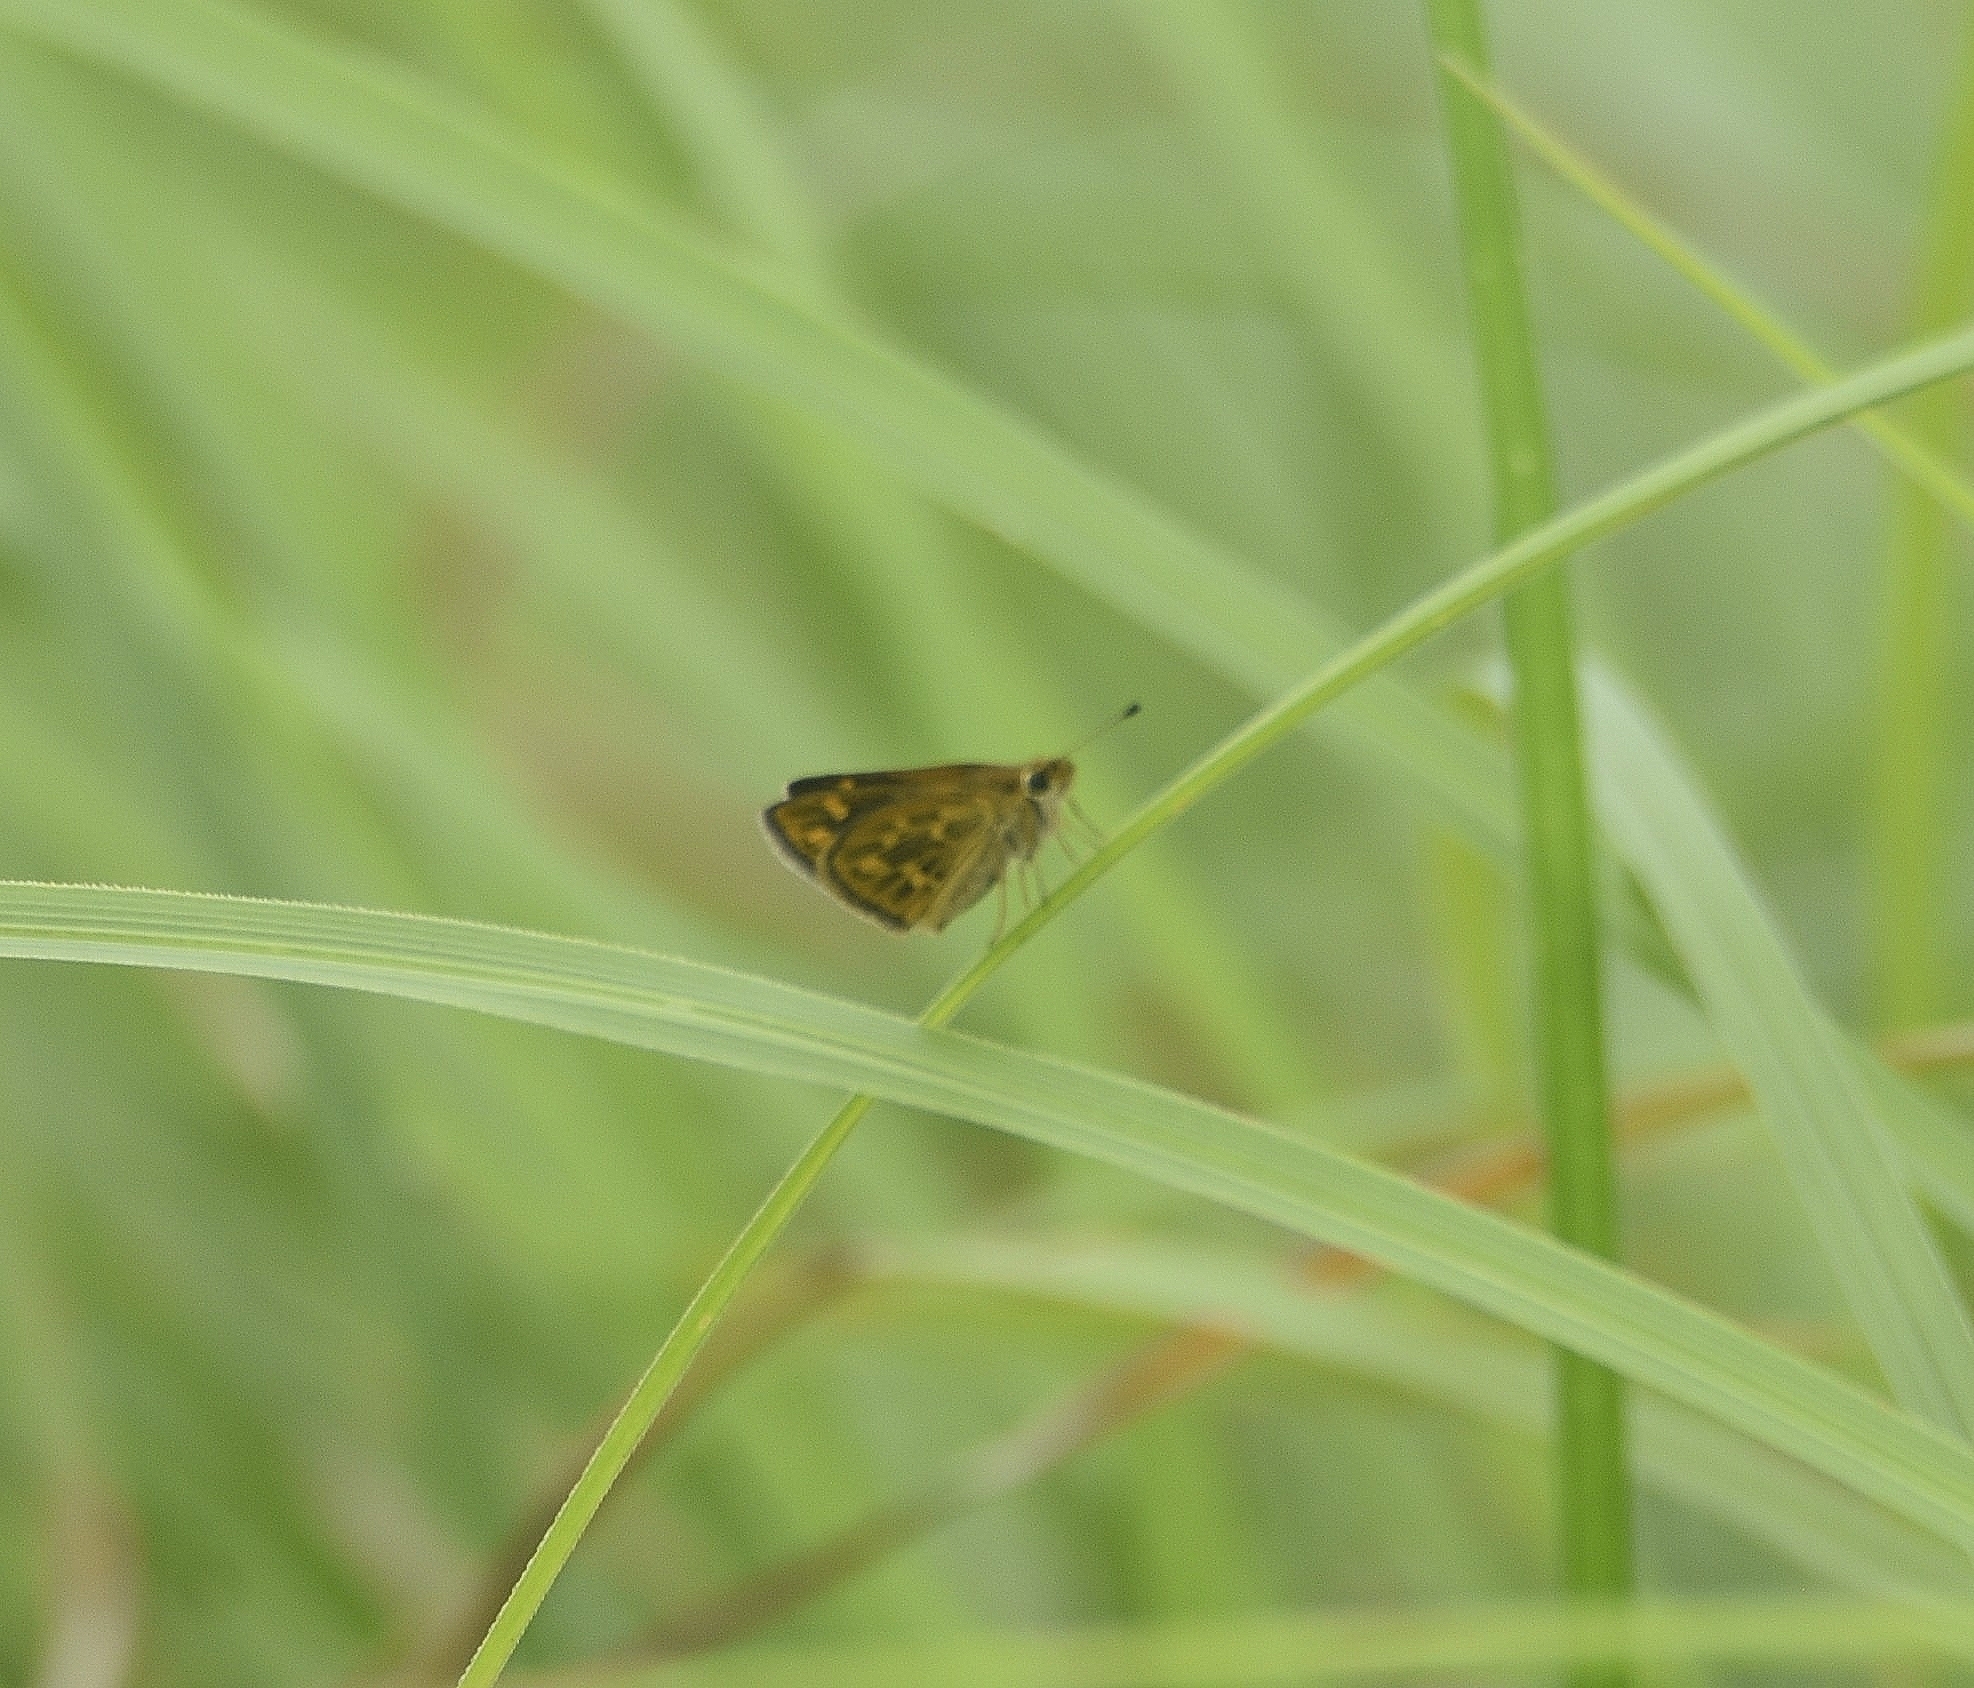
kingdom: Animalia
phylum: Arthropoda
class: Insecta
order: Lepidoptera
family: Hesperiidae
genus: Taractrocera
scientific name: Taractrocera ceramas
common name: Tamil grass dart
